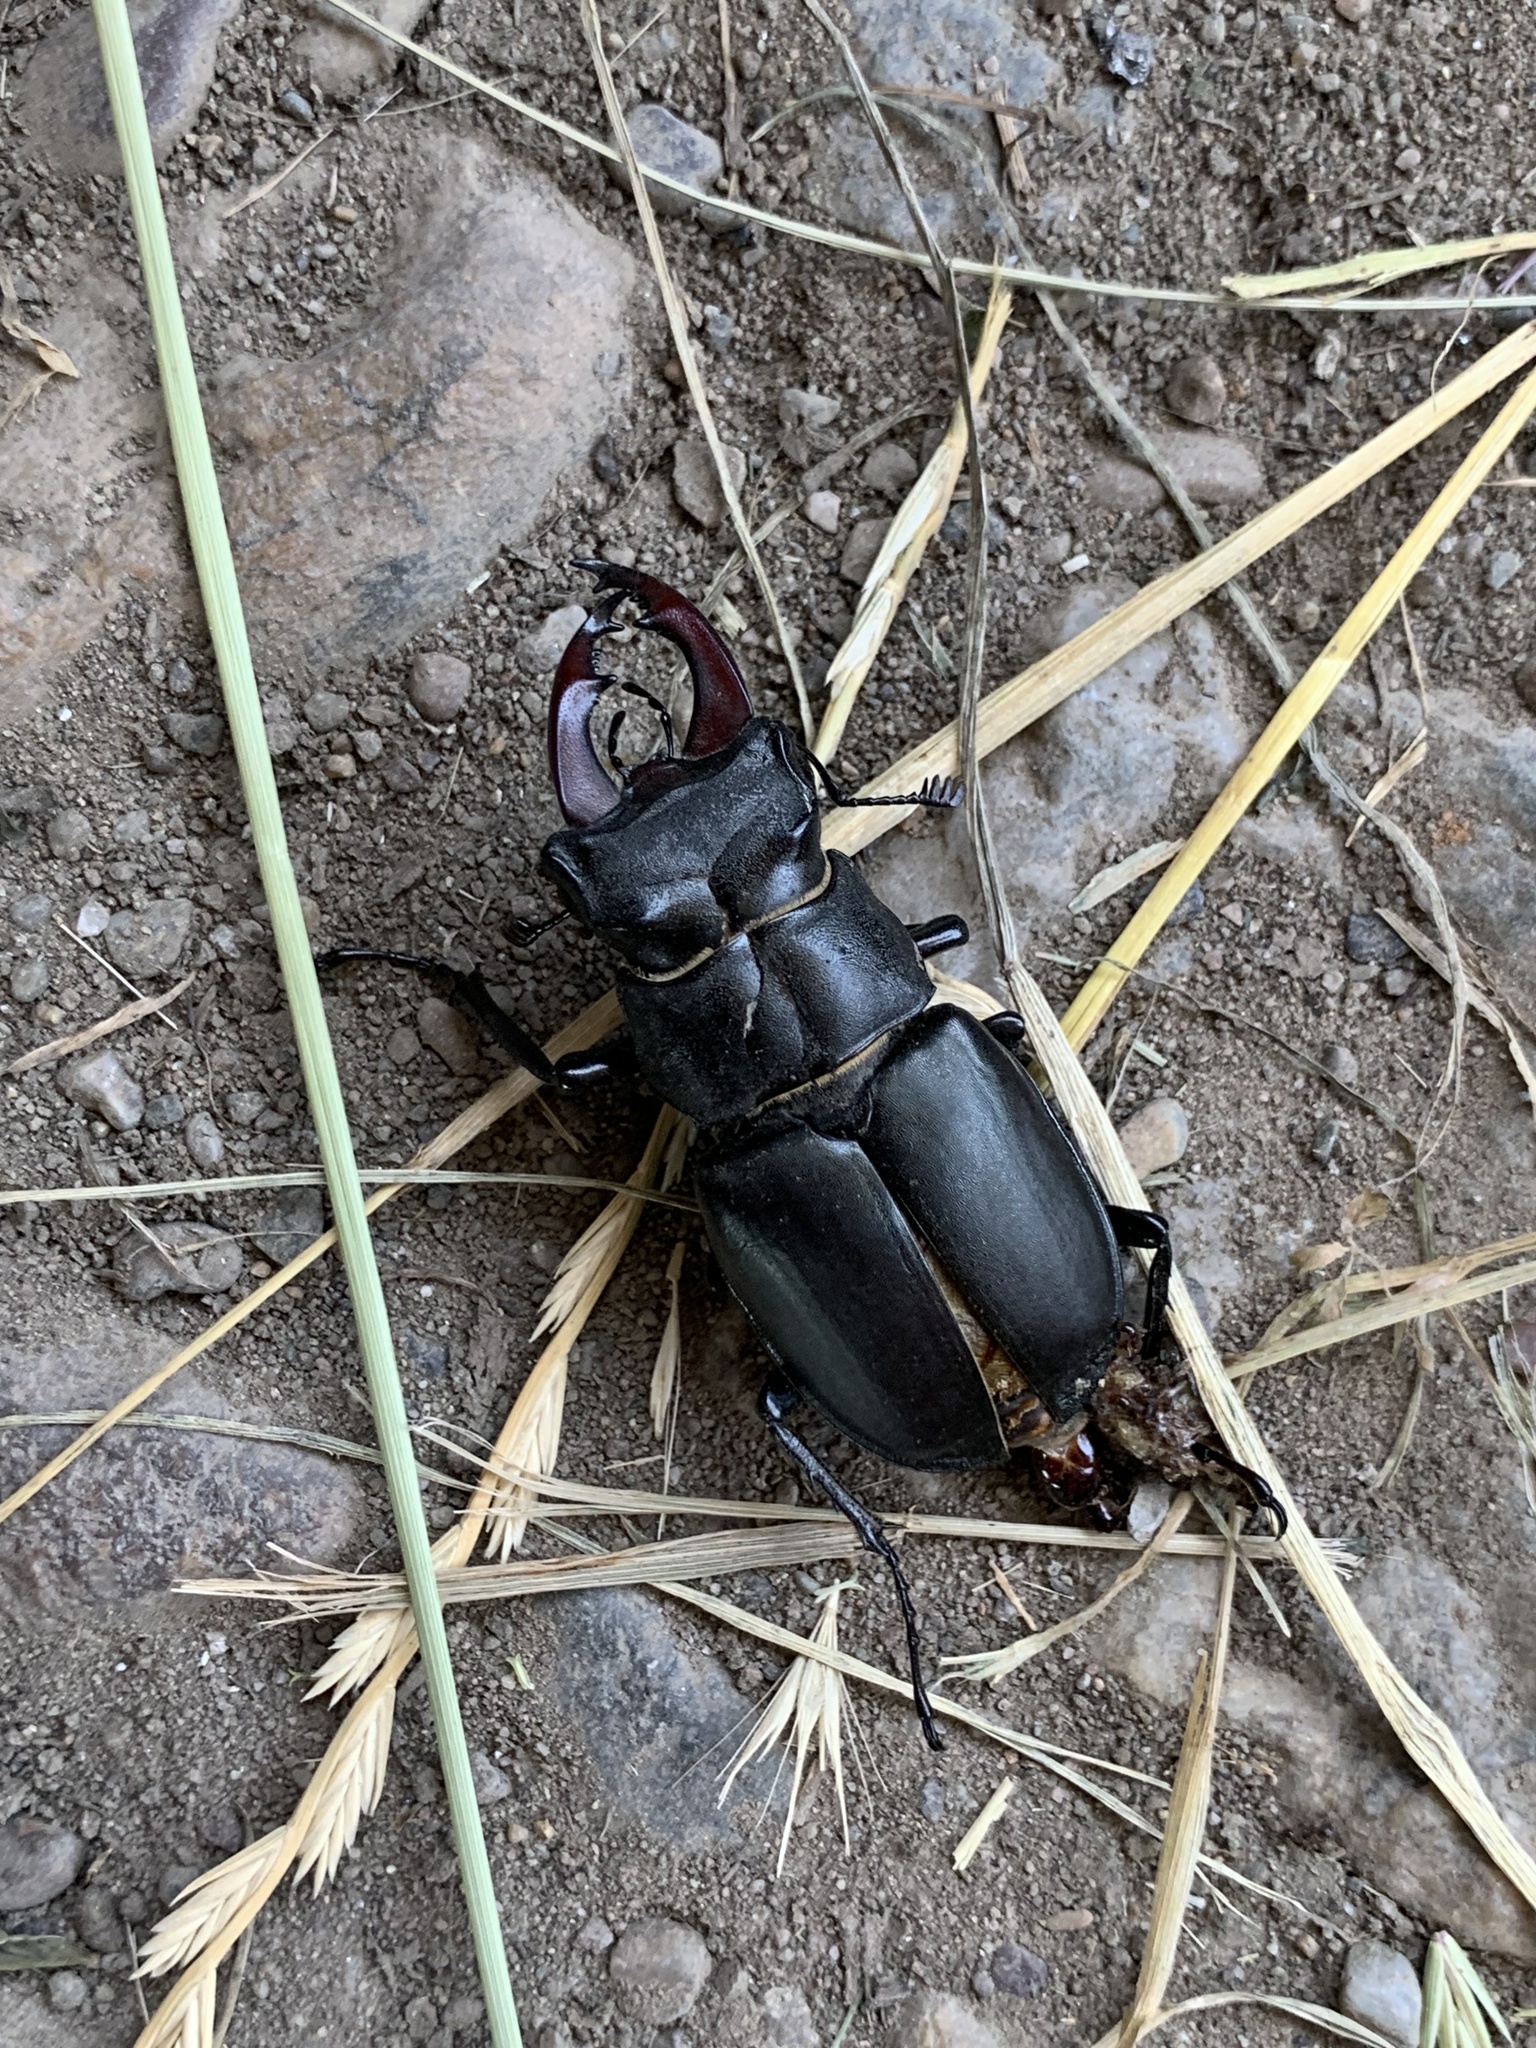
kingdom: Animalia
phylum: Arthropoda
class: Insecta
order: Coleoptera
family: Lucanidae
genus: Lucanus
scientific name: Lucanus cervus
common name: Stag beetle
